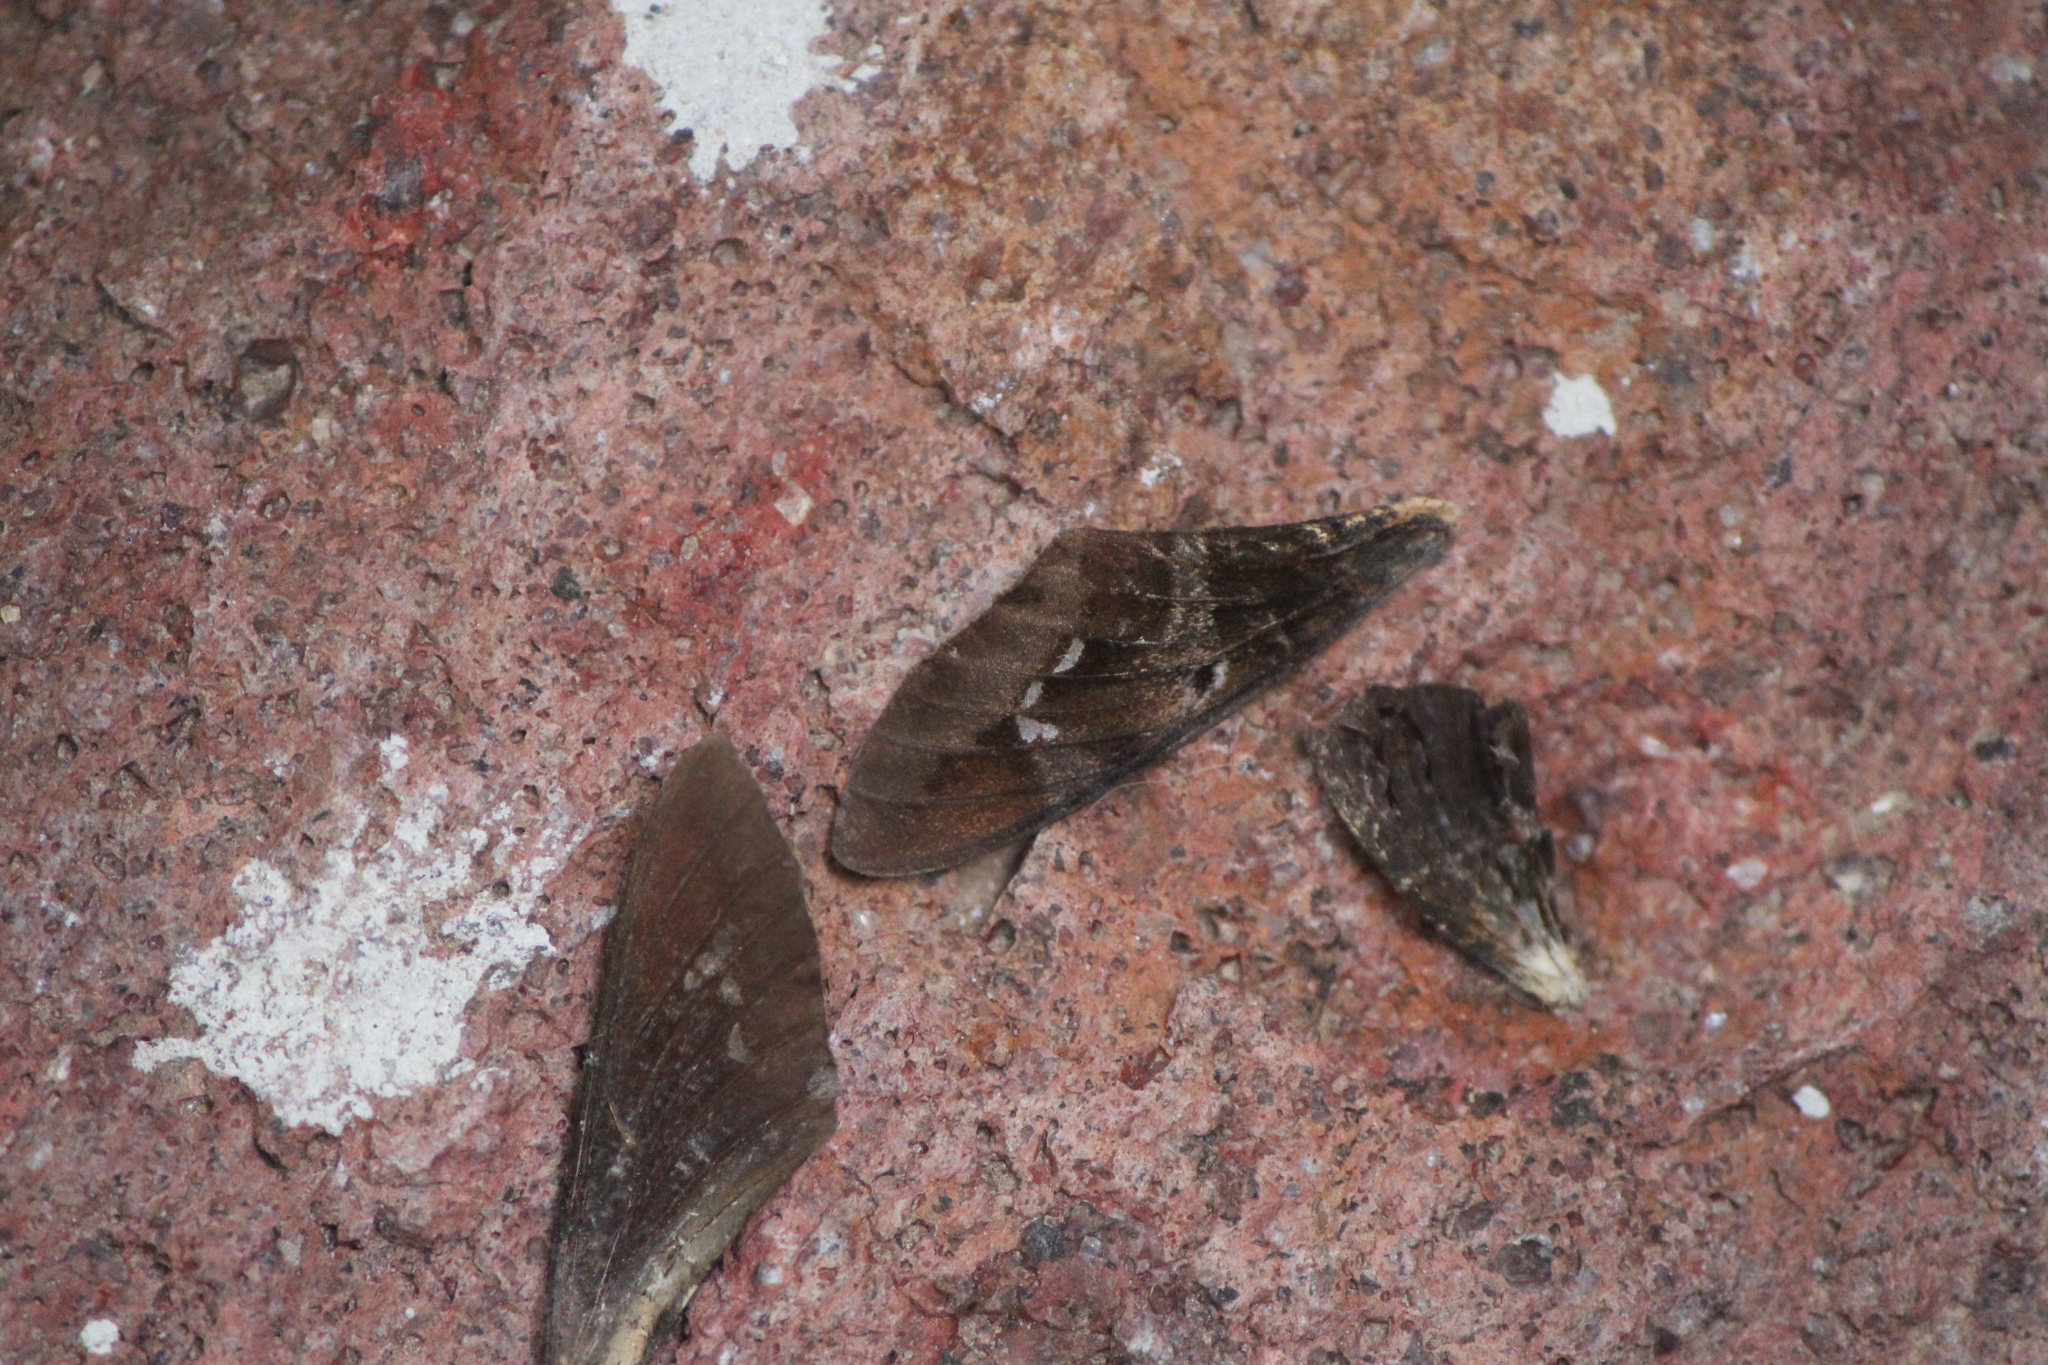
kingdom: Animalia
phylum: Arthropoda
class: Insecta
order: Lepidoptera
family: Sphingidae
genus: Aellopos
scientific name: Aellopos clavipes
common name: Clavipes sphinx
